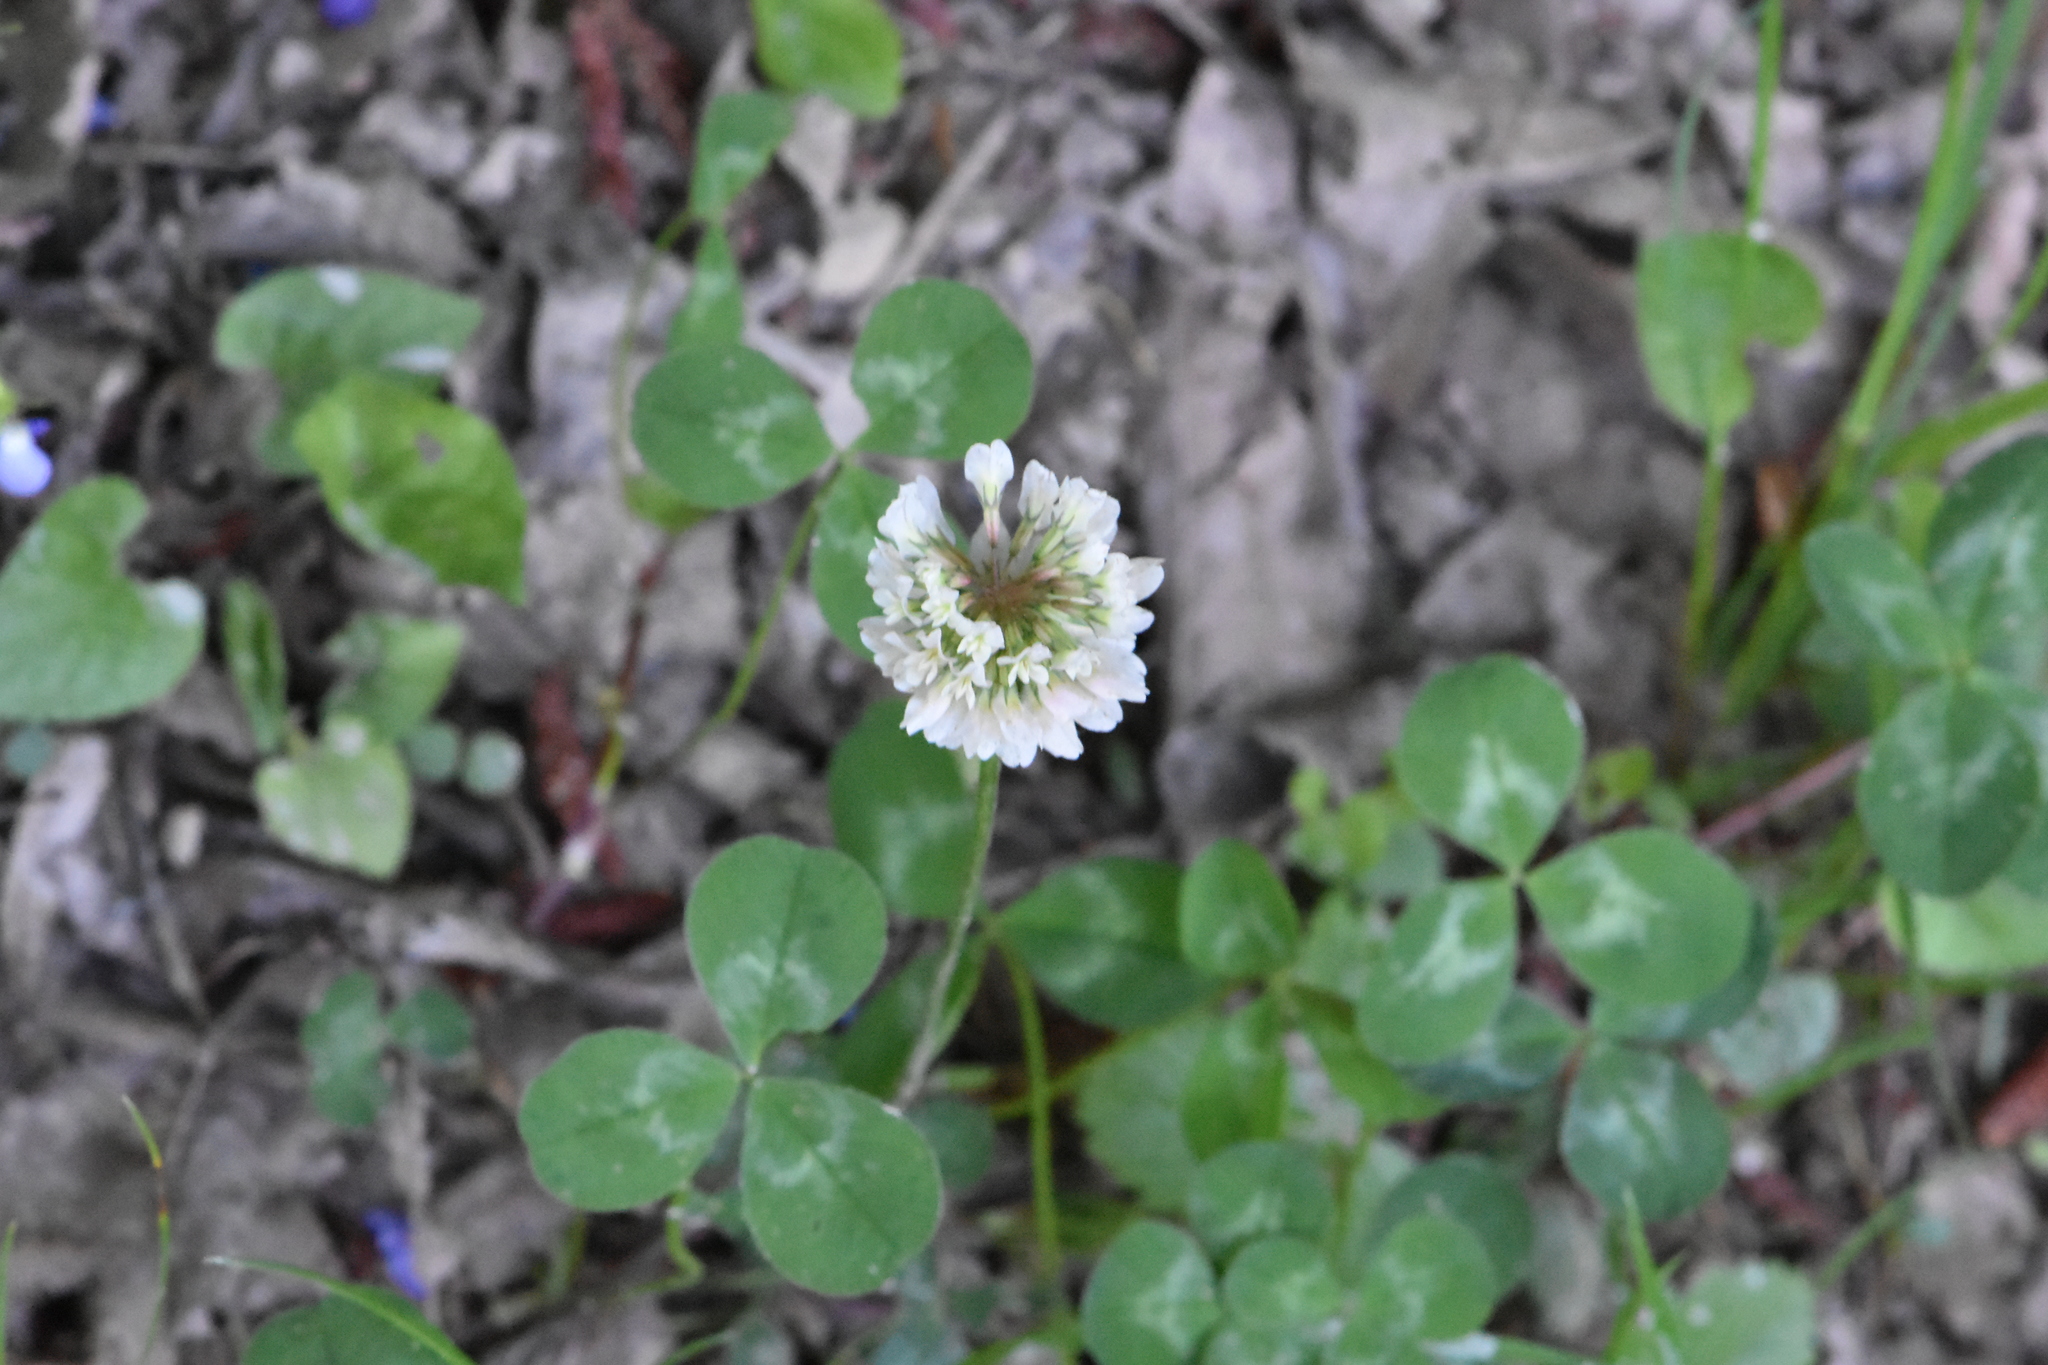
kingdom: Plantae
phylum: Tracheophyta
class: Magnoliopsida
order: Fabales
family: Fabaceae
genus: Trifolium
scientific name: Trifolium repens
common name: White clover
